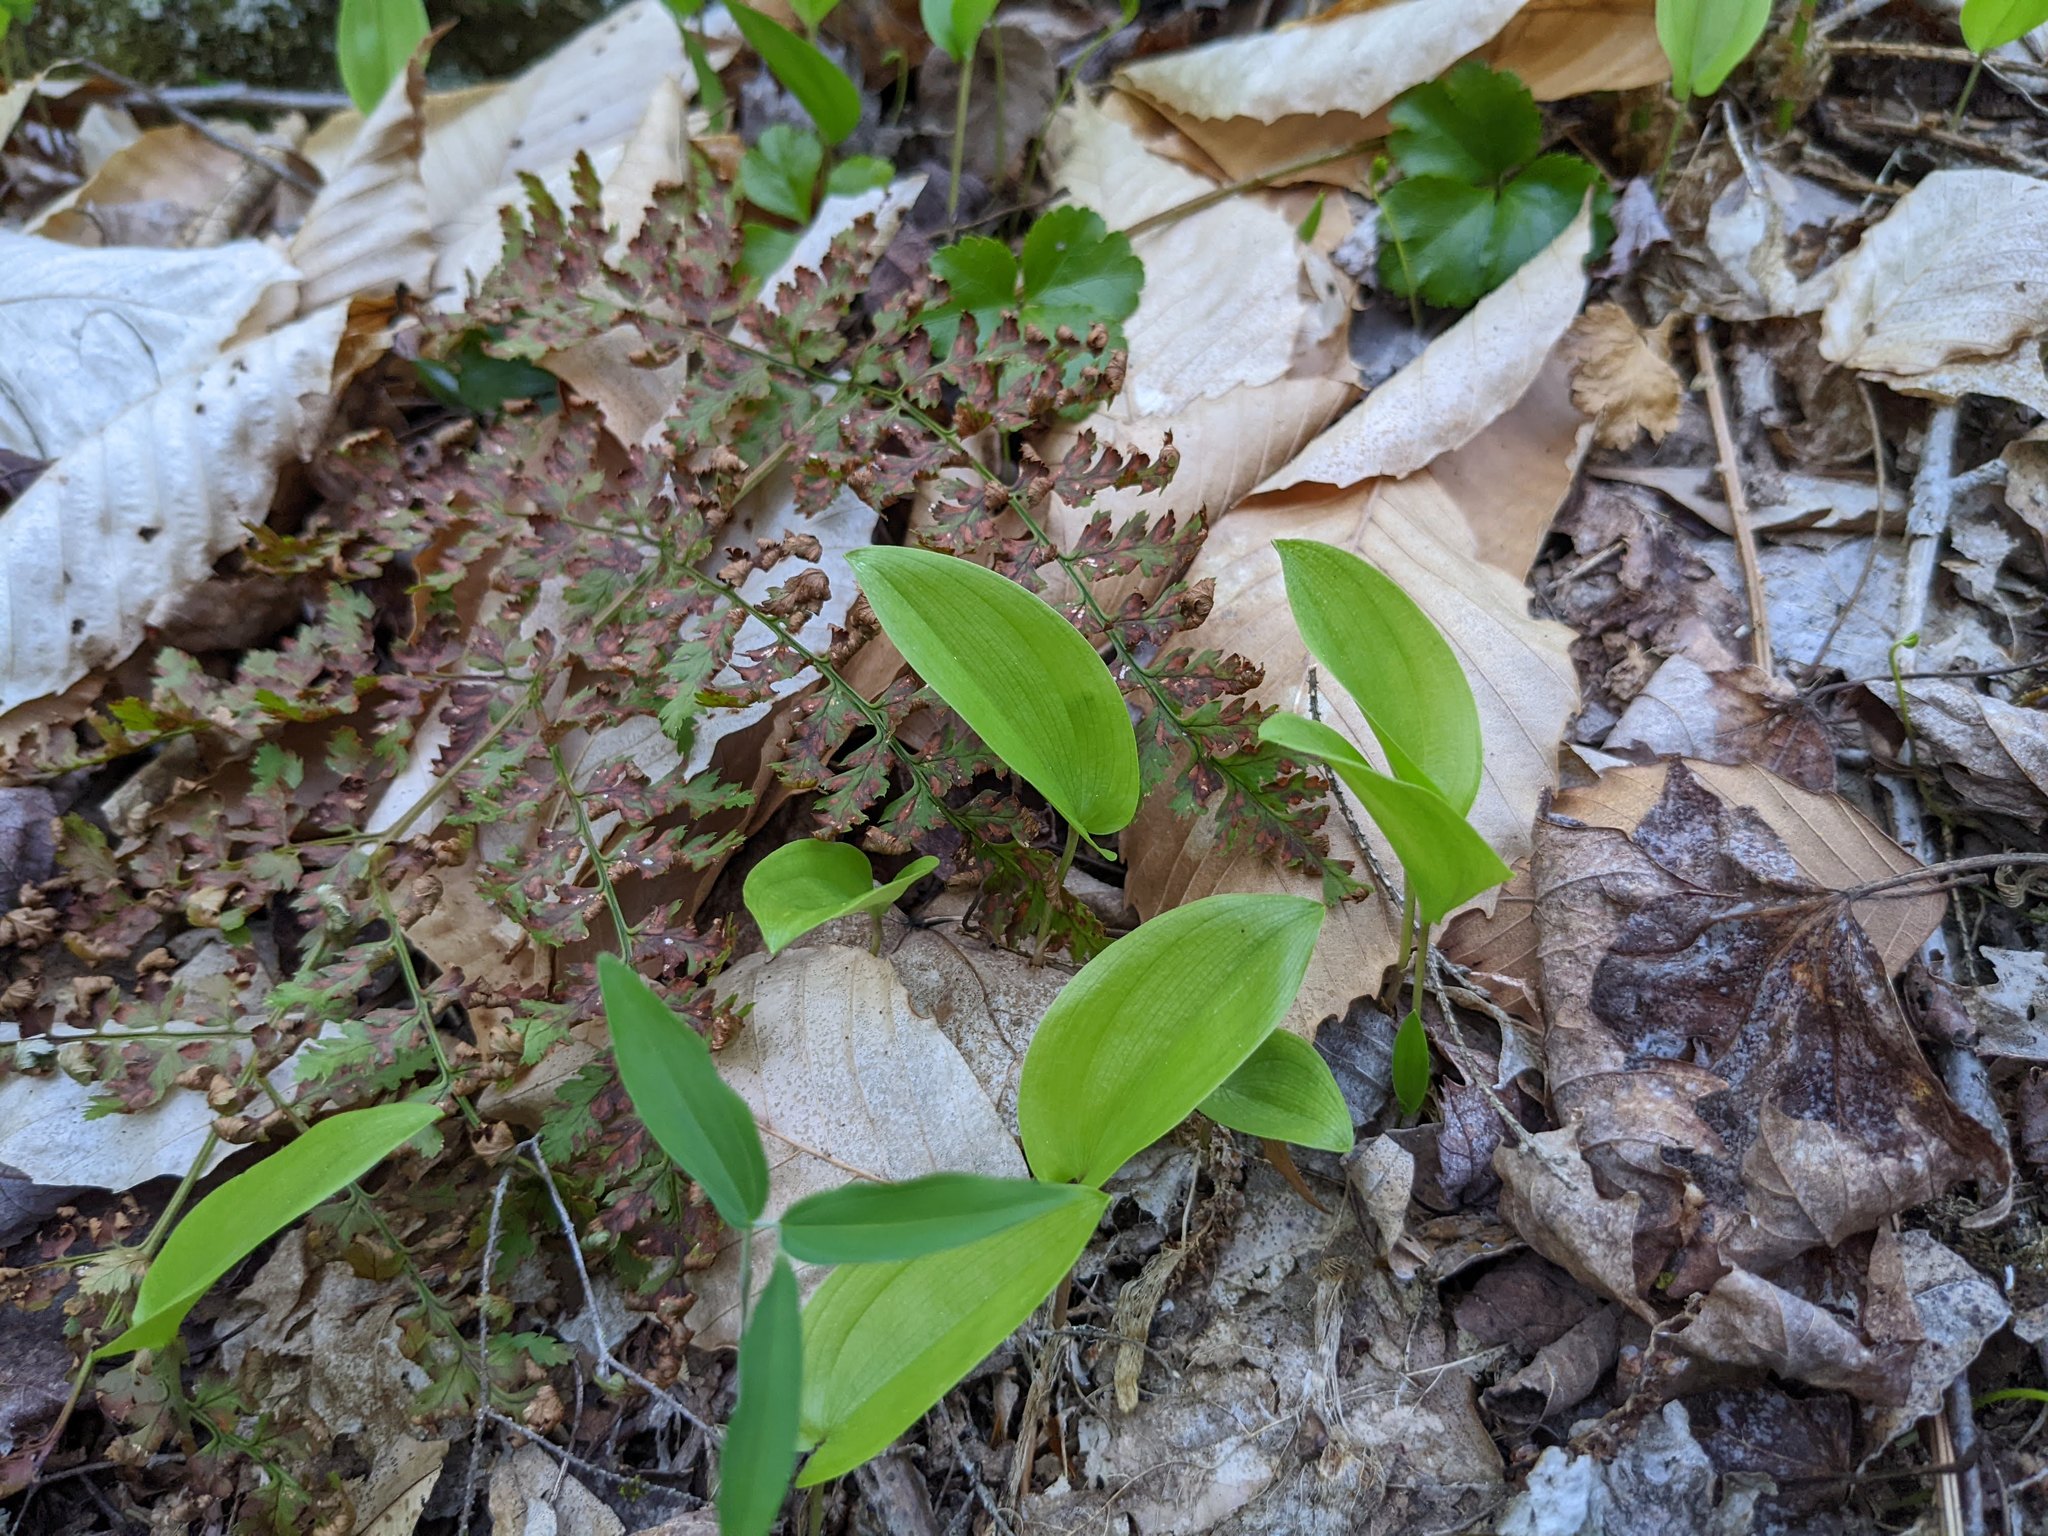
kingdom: Plantae
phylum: Tracheophyta
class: Liliopsida
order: Asparagales
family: Asparagaceae
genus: Maianthemum
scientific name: Maianthemum canadense
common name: False lily-of-the-valley
